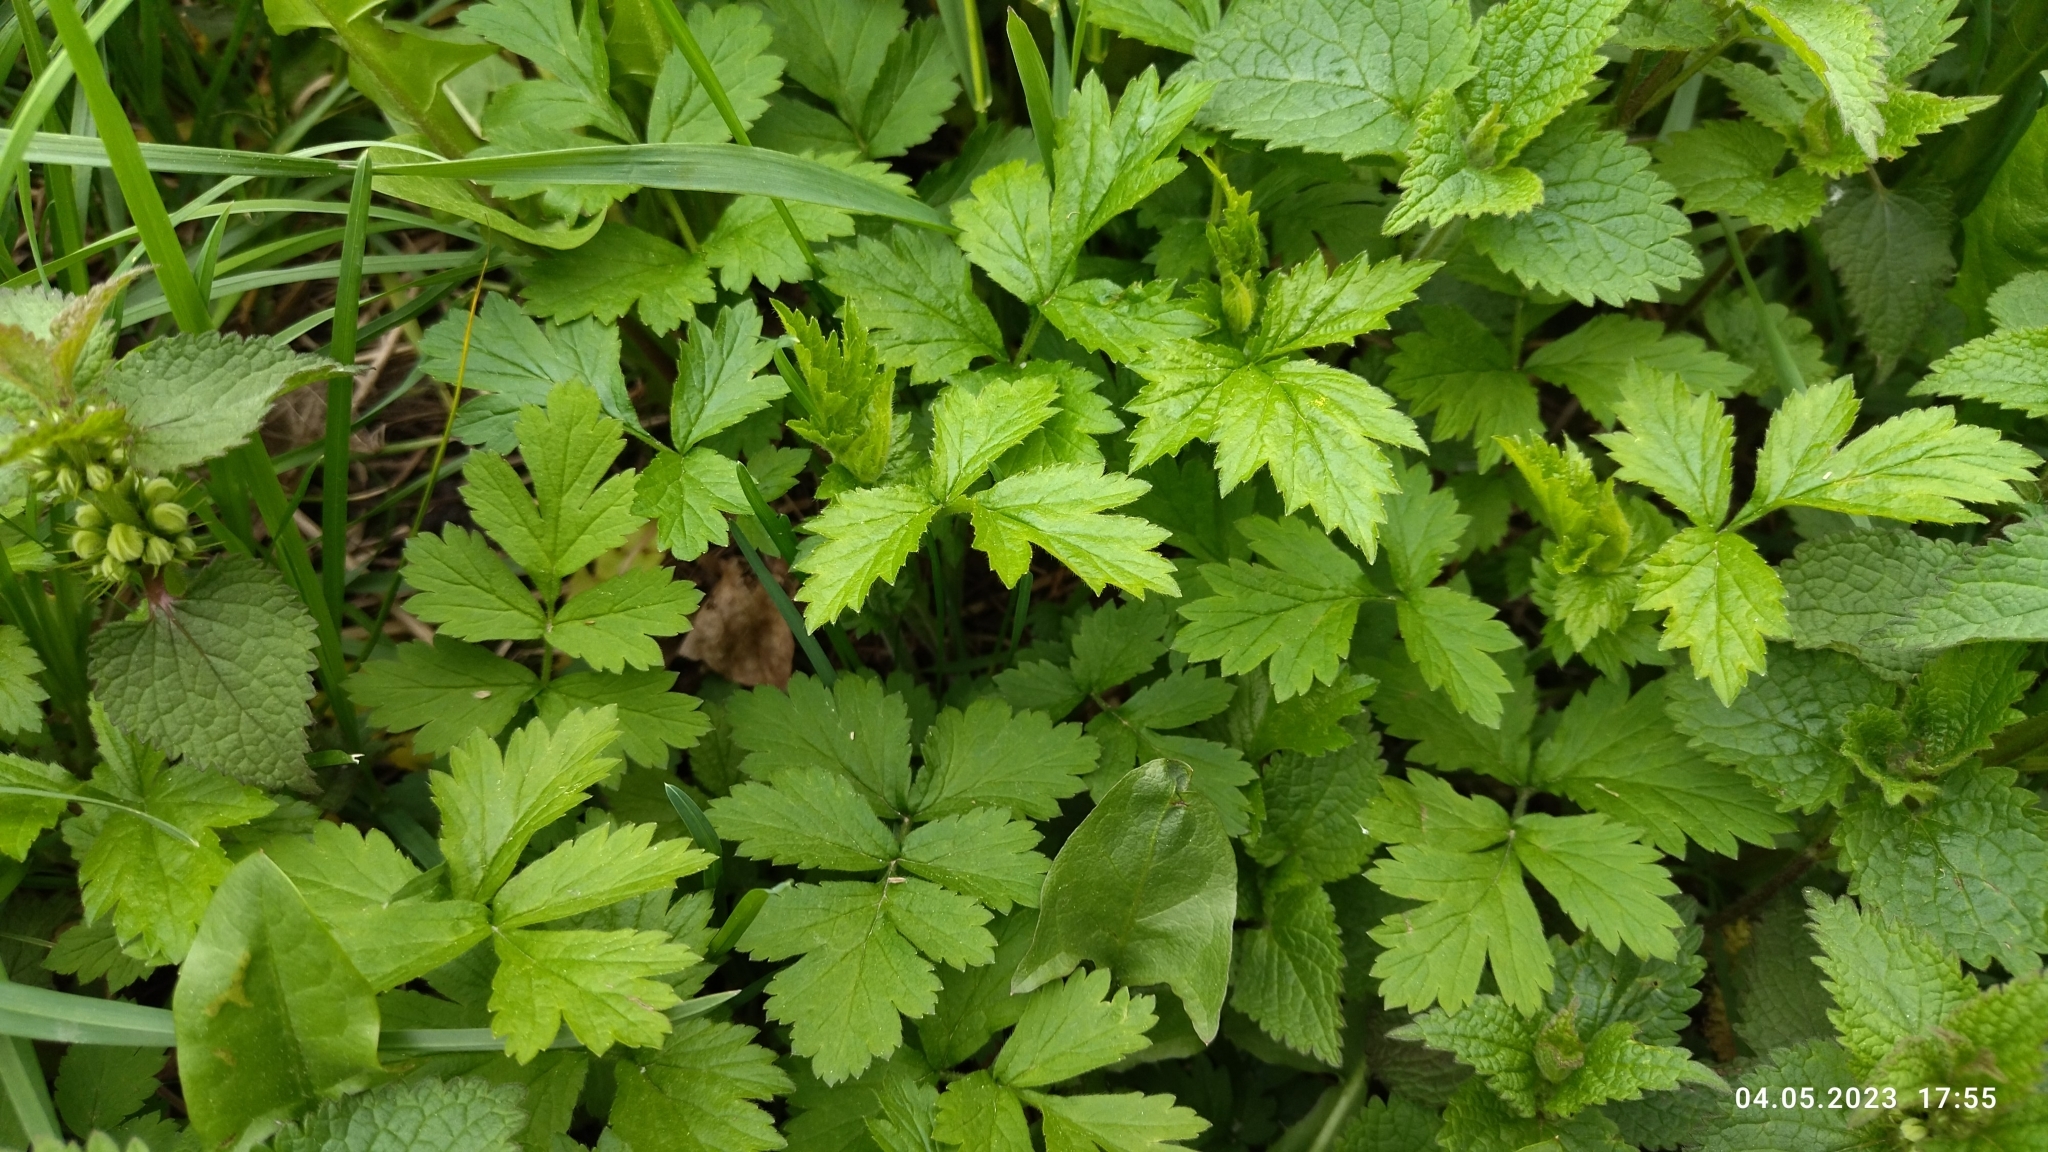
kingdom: Plantae
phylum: Tracheophyta
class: Magnoliopsida
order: Rosales
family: Rosaceae
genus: Geum
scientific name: Geum urbanum
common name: Wood avens
